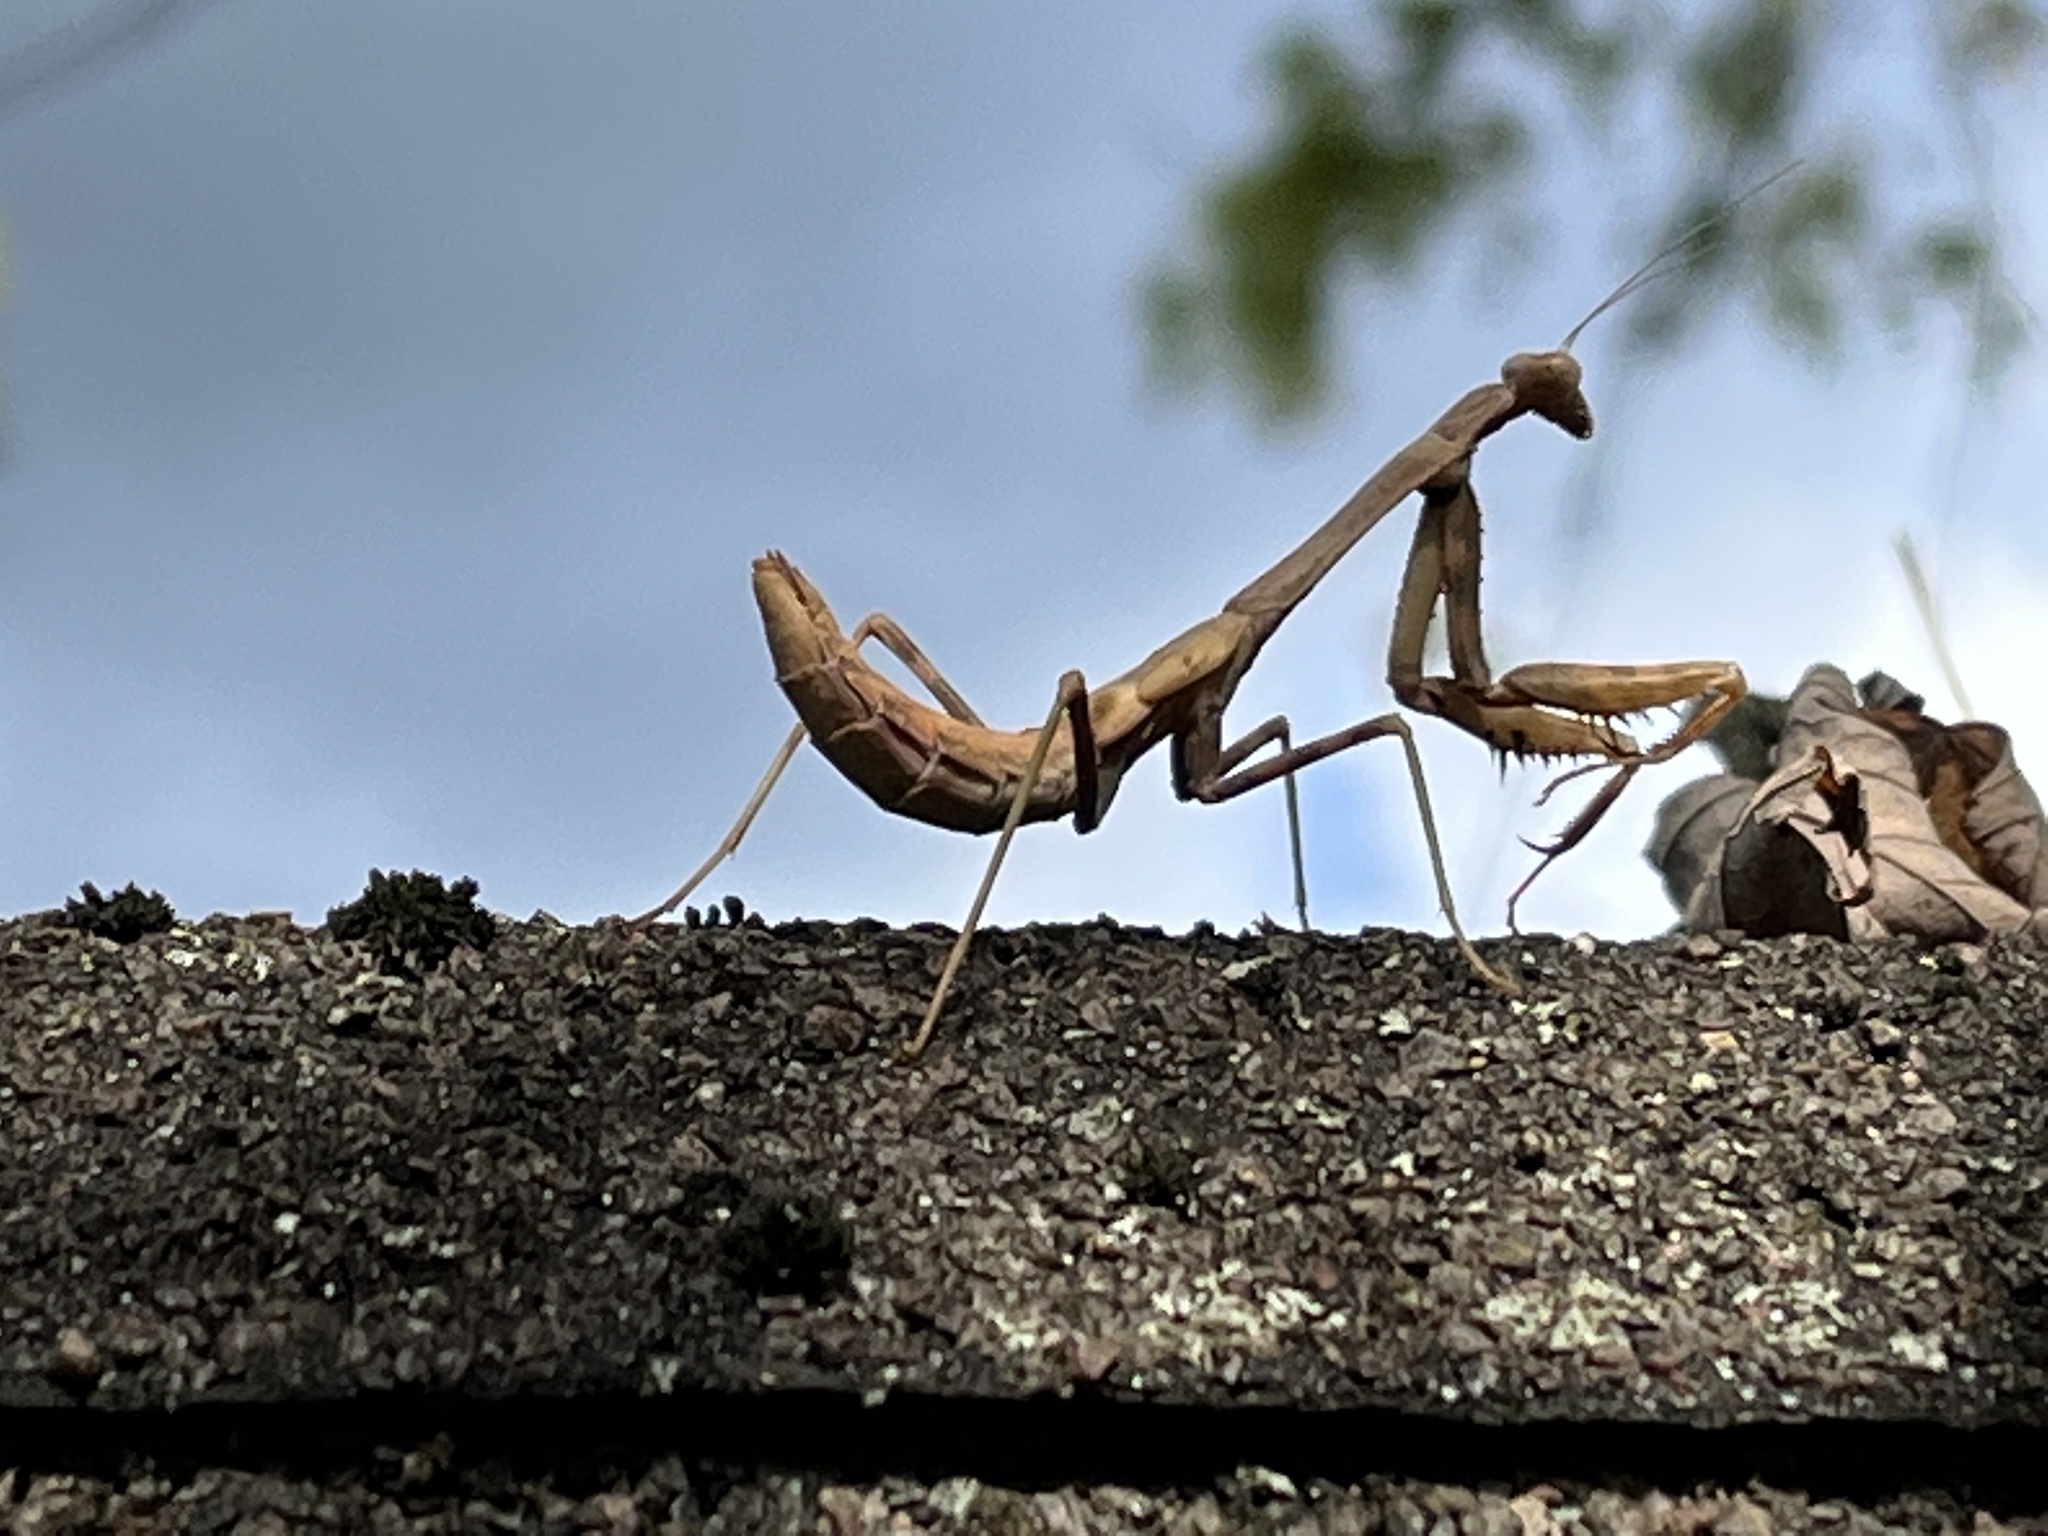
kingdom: Animalia
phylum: Arthropoda
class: Insecta
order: Mantodea
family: Mantidae
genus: Stagmomantis
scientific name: Stagmomantis carolina
